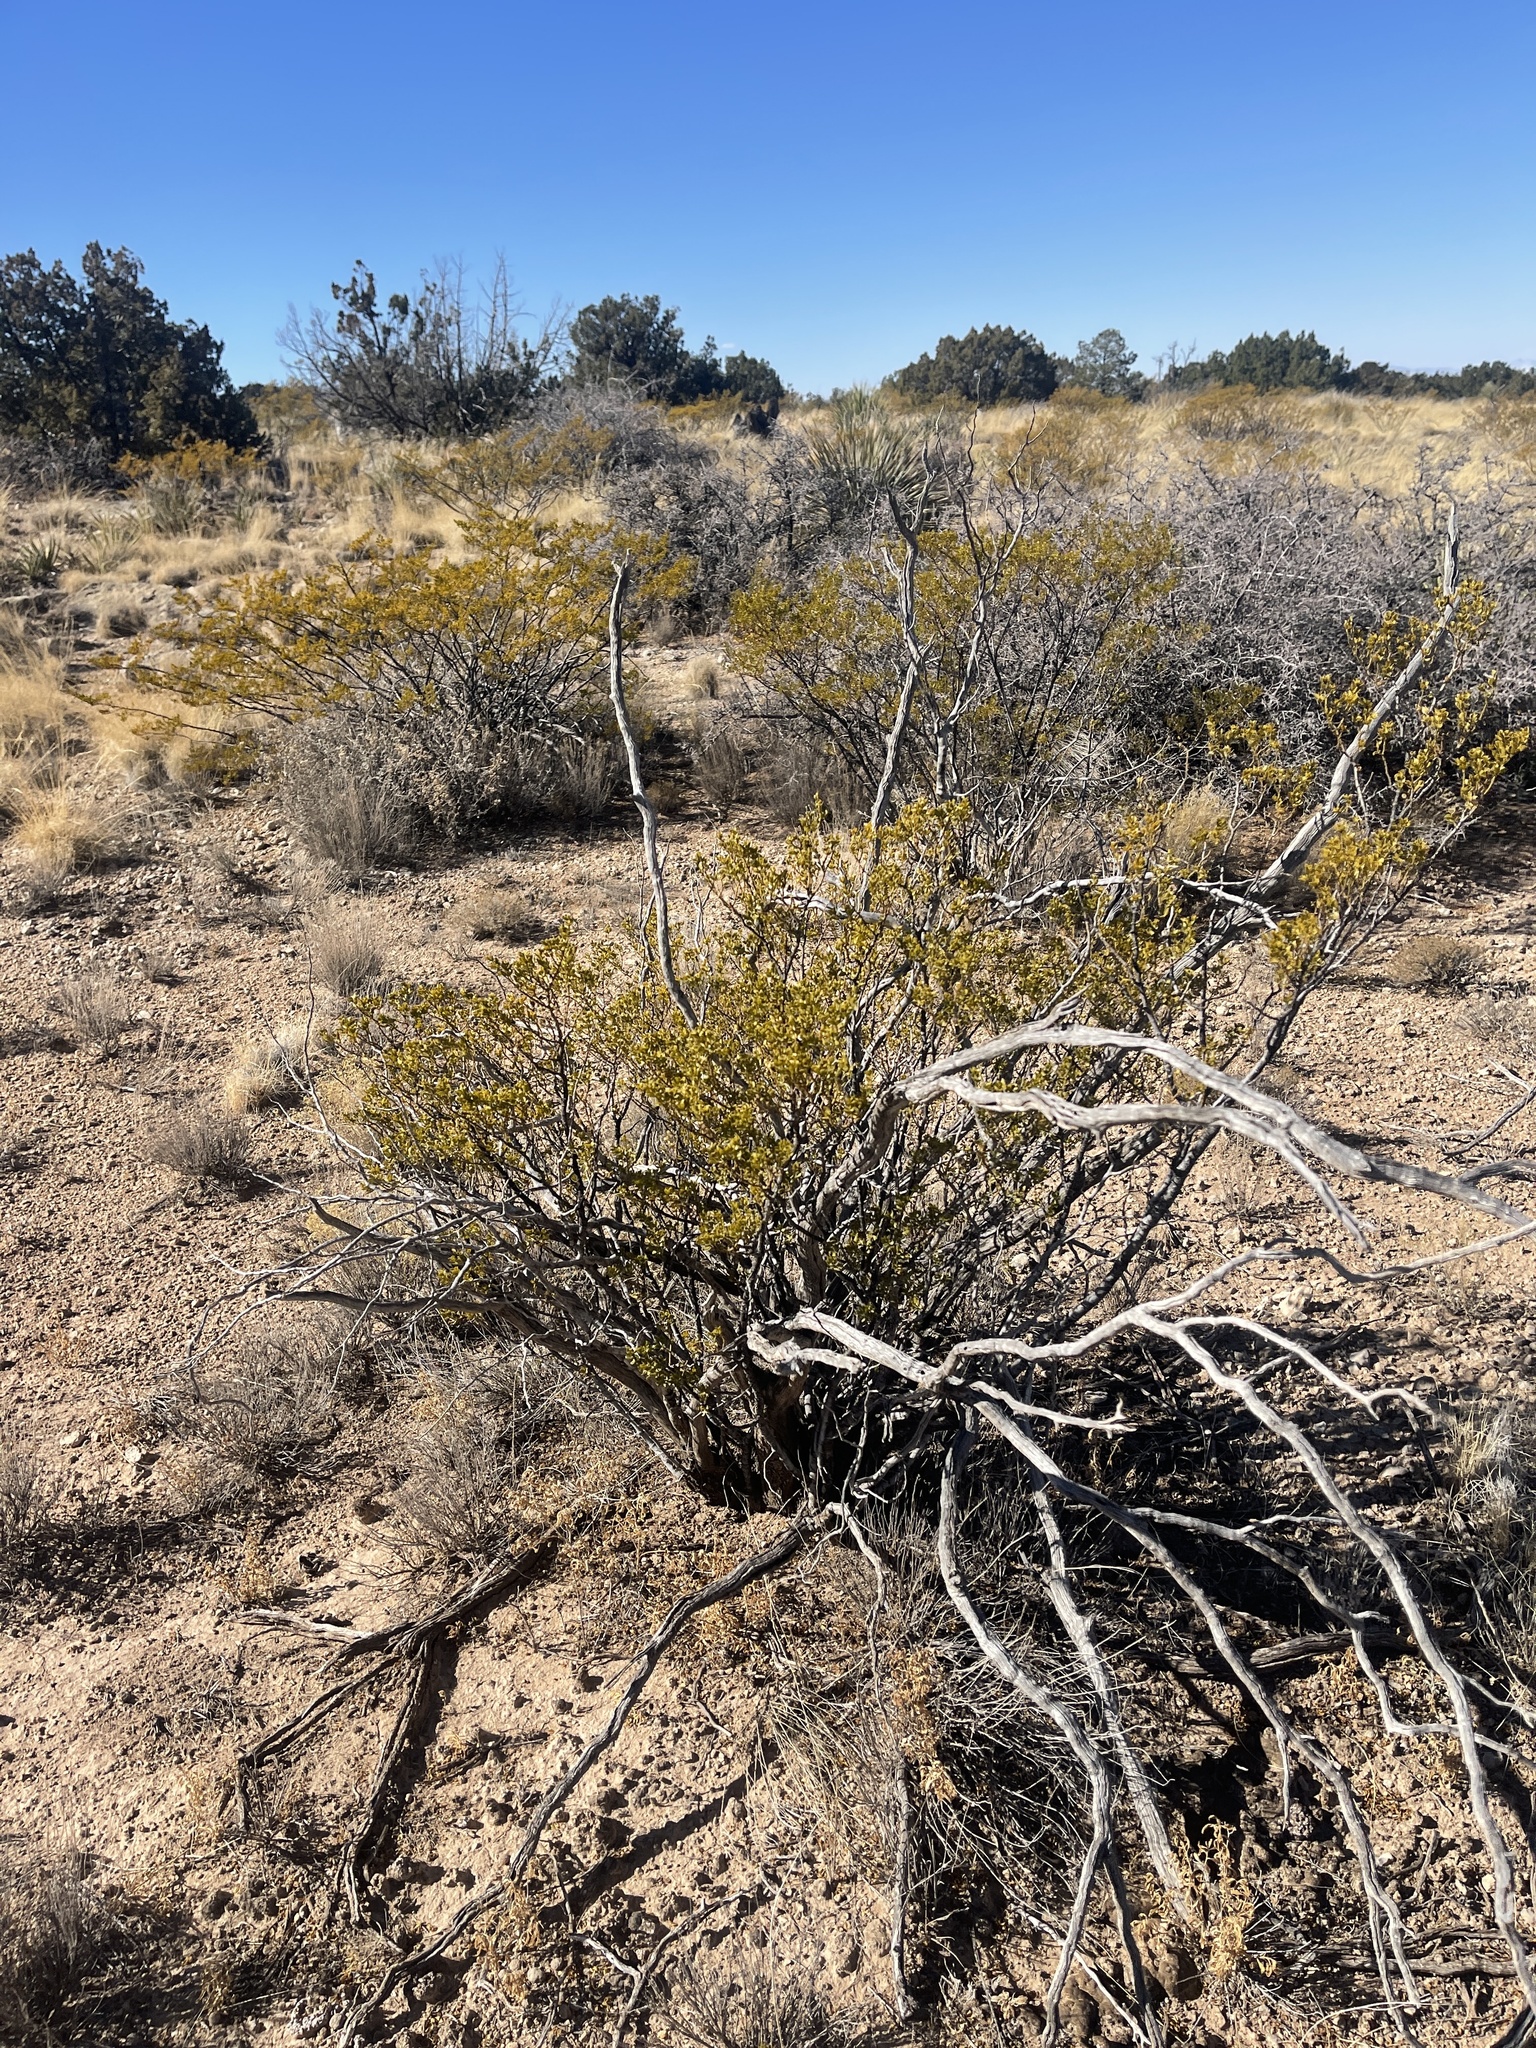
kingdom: Plantae
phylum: Tracheophyta
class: Magnoliopsida
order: Zygophyllales
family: Zygophyllaceae
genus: Larrea
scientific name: Larrea tridentata
